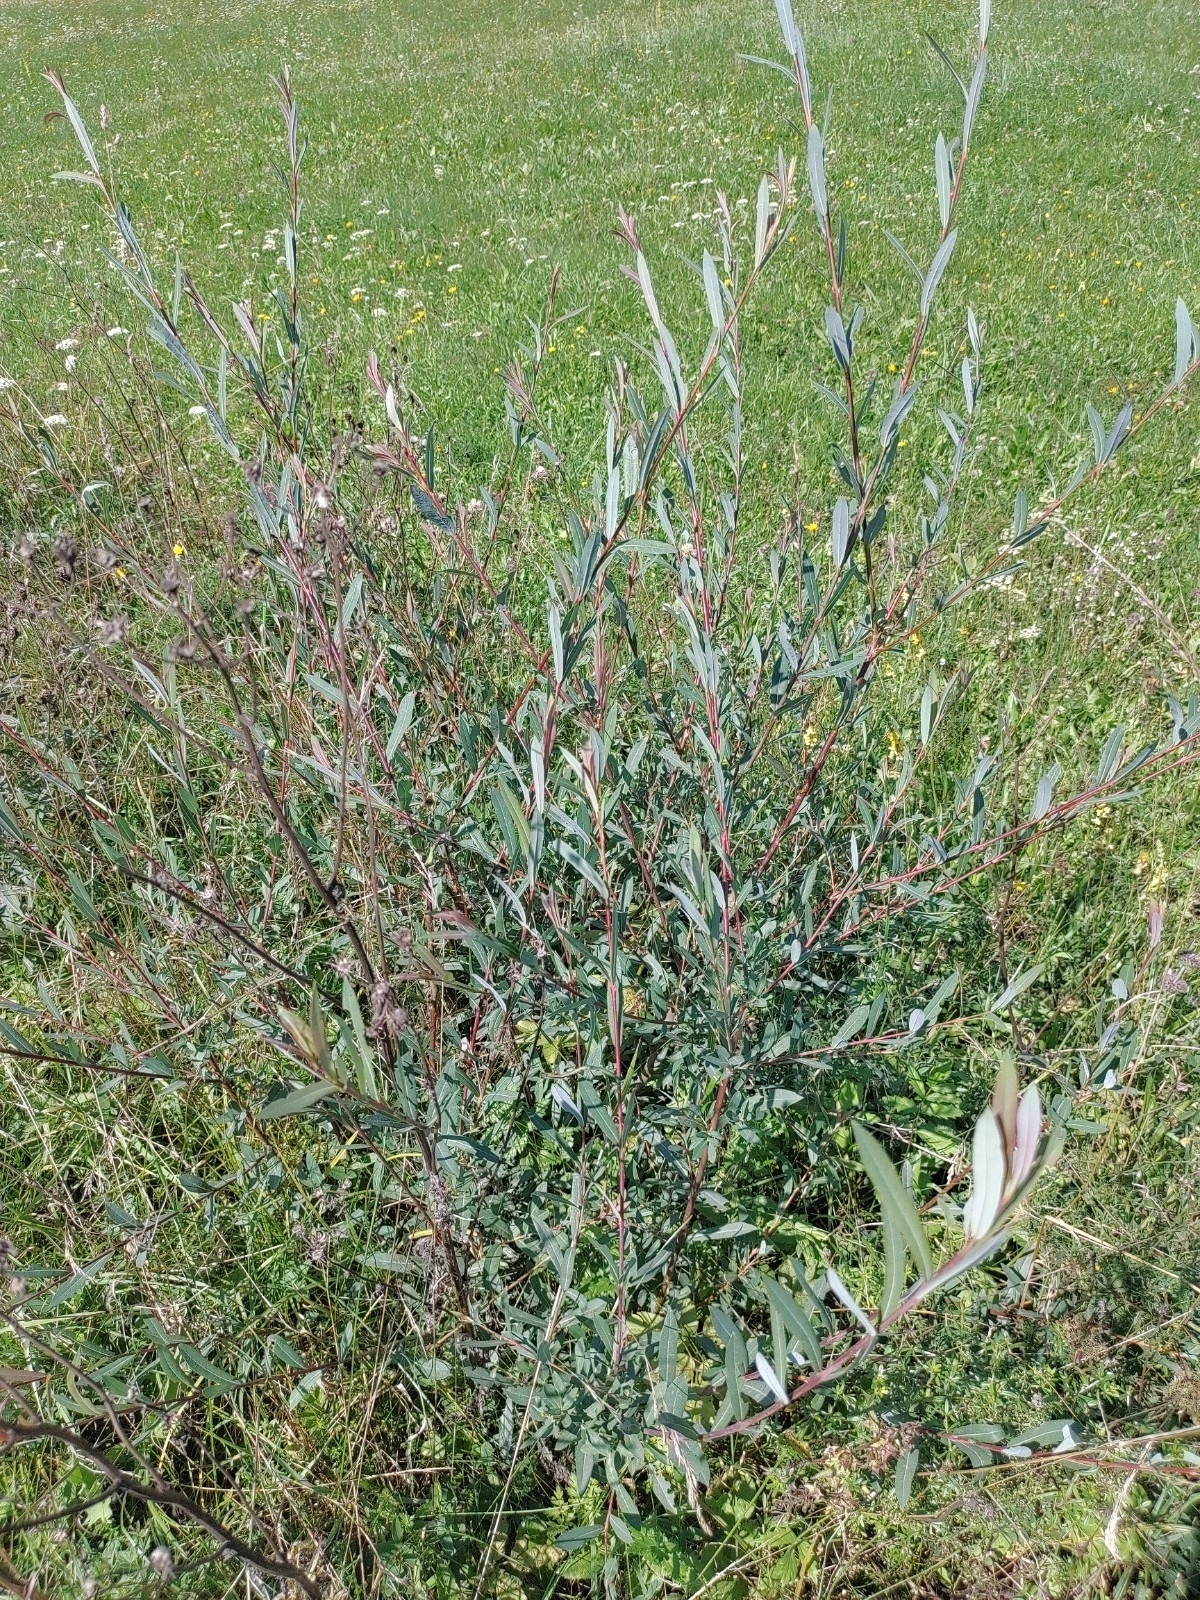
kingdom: Plantae
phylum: Tracheophyta
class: Magnoliopsida
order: Malpighiales
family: Salicaceae
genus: Salix
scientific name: Salix purpurea
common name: Purple willow
